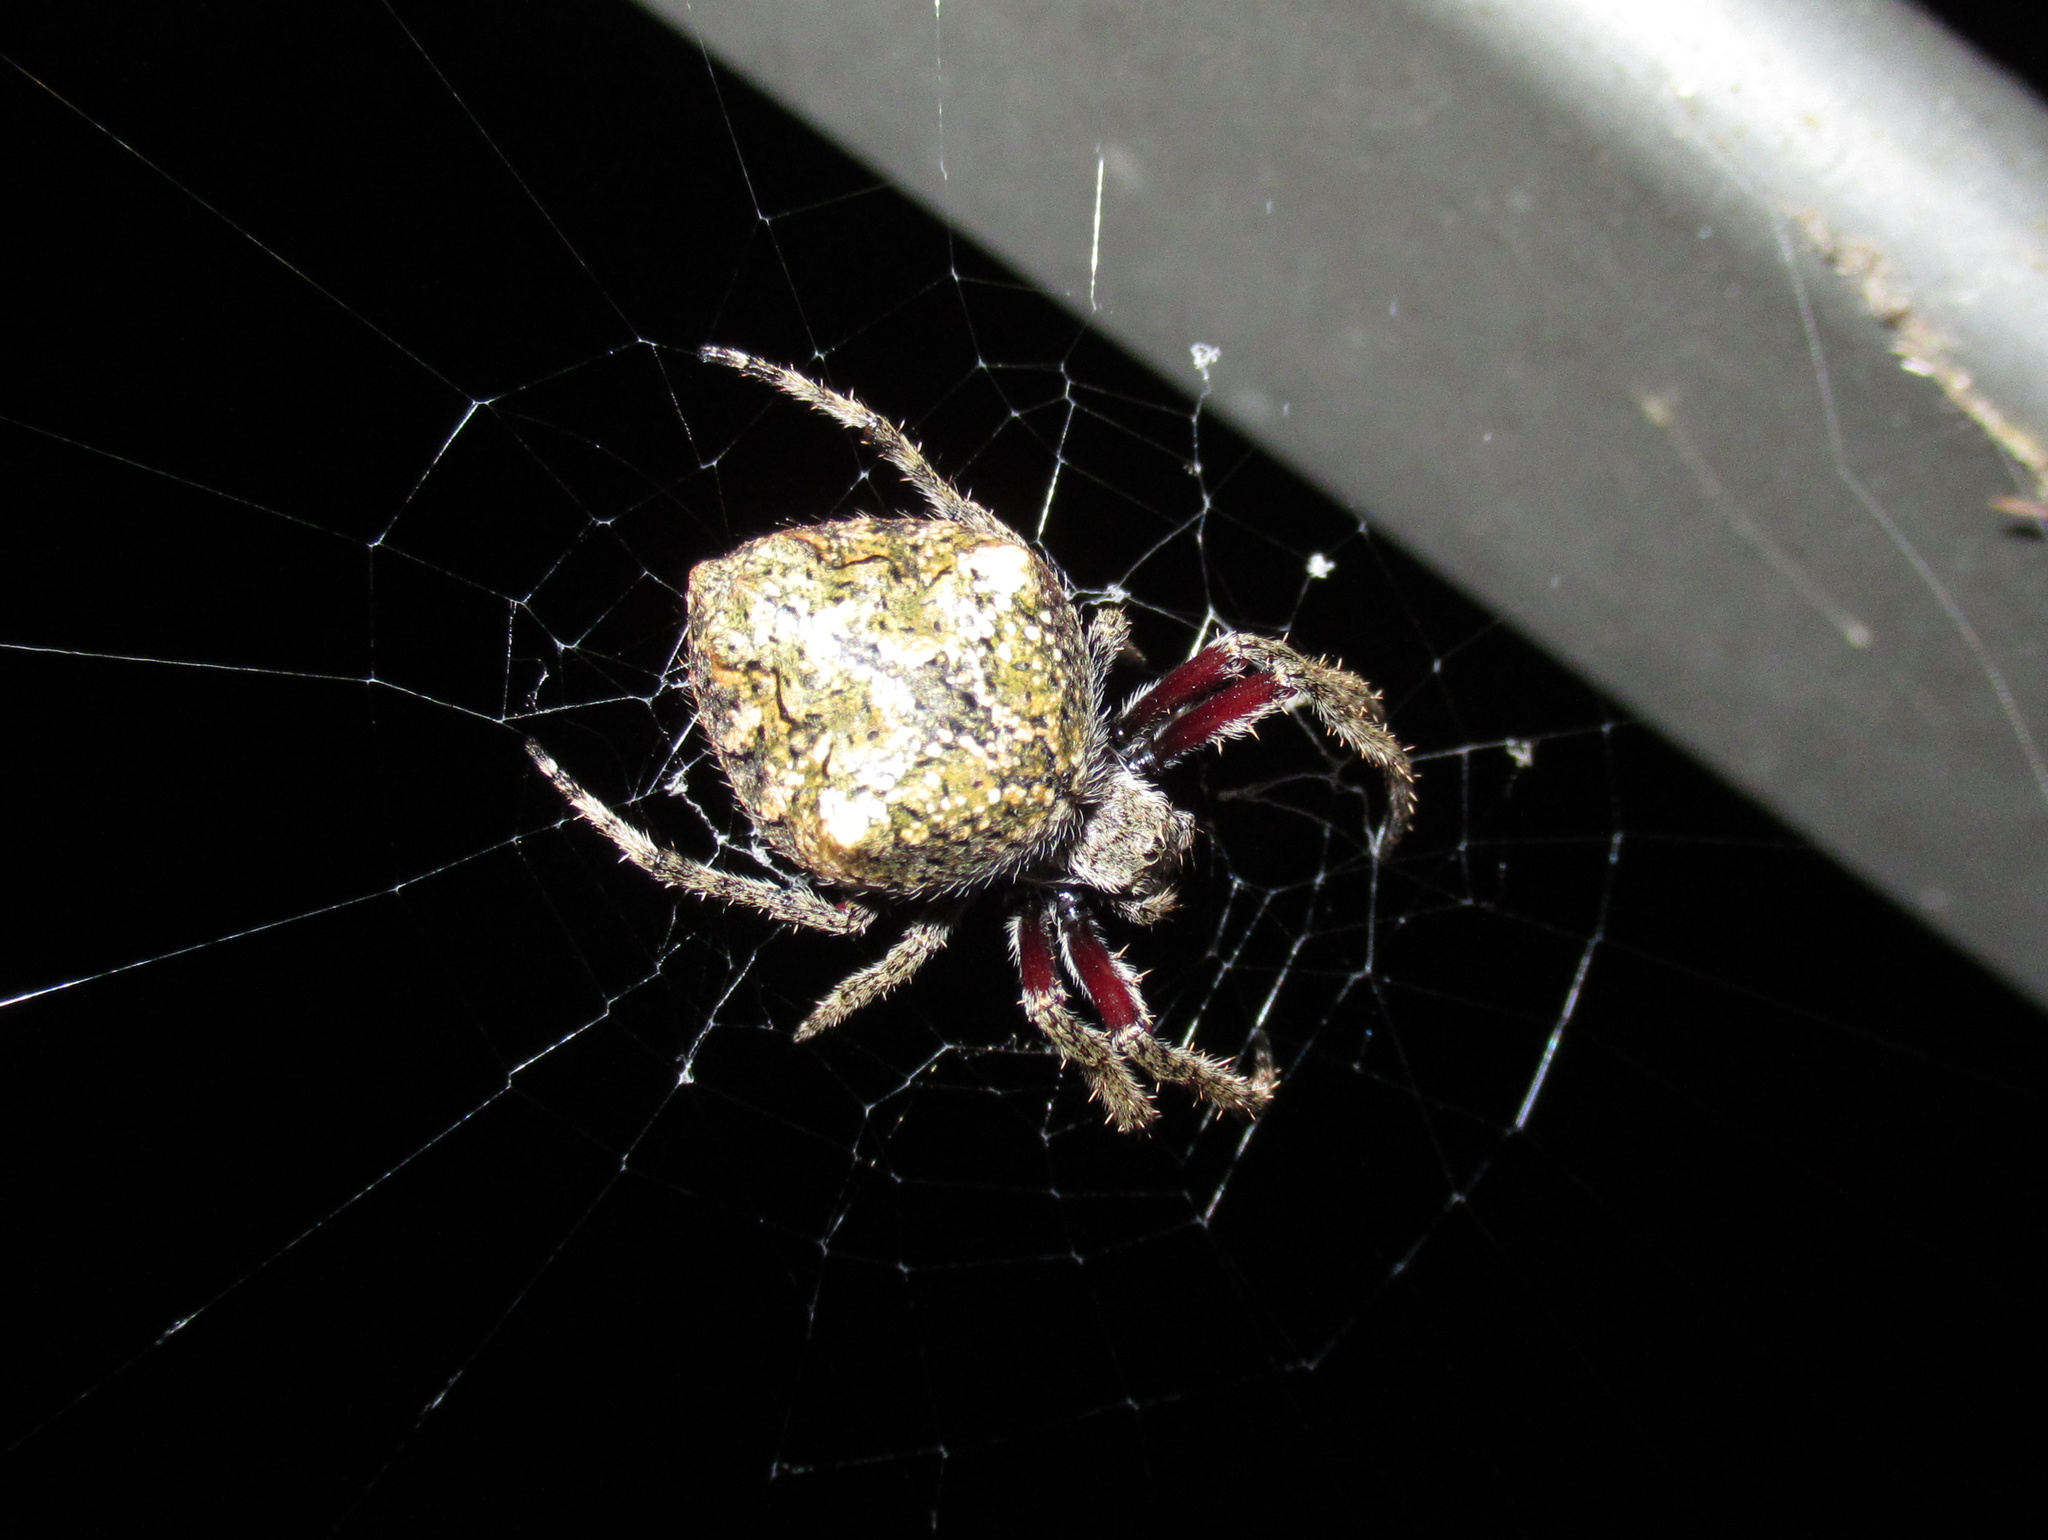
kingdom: Animalia
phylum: Arthropoda
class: Arachnida
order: Araneae
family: Araneidae
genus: Eriophora
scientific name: Eriophora pustulosa
